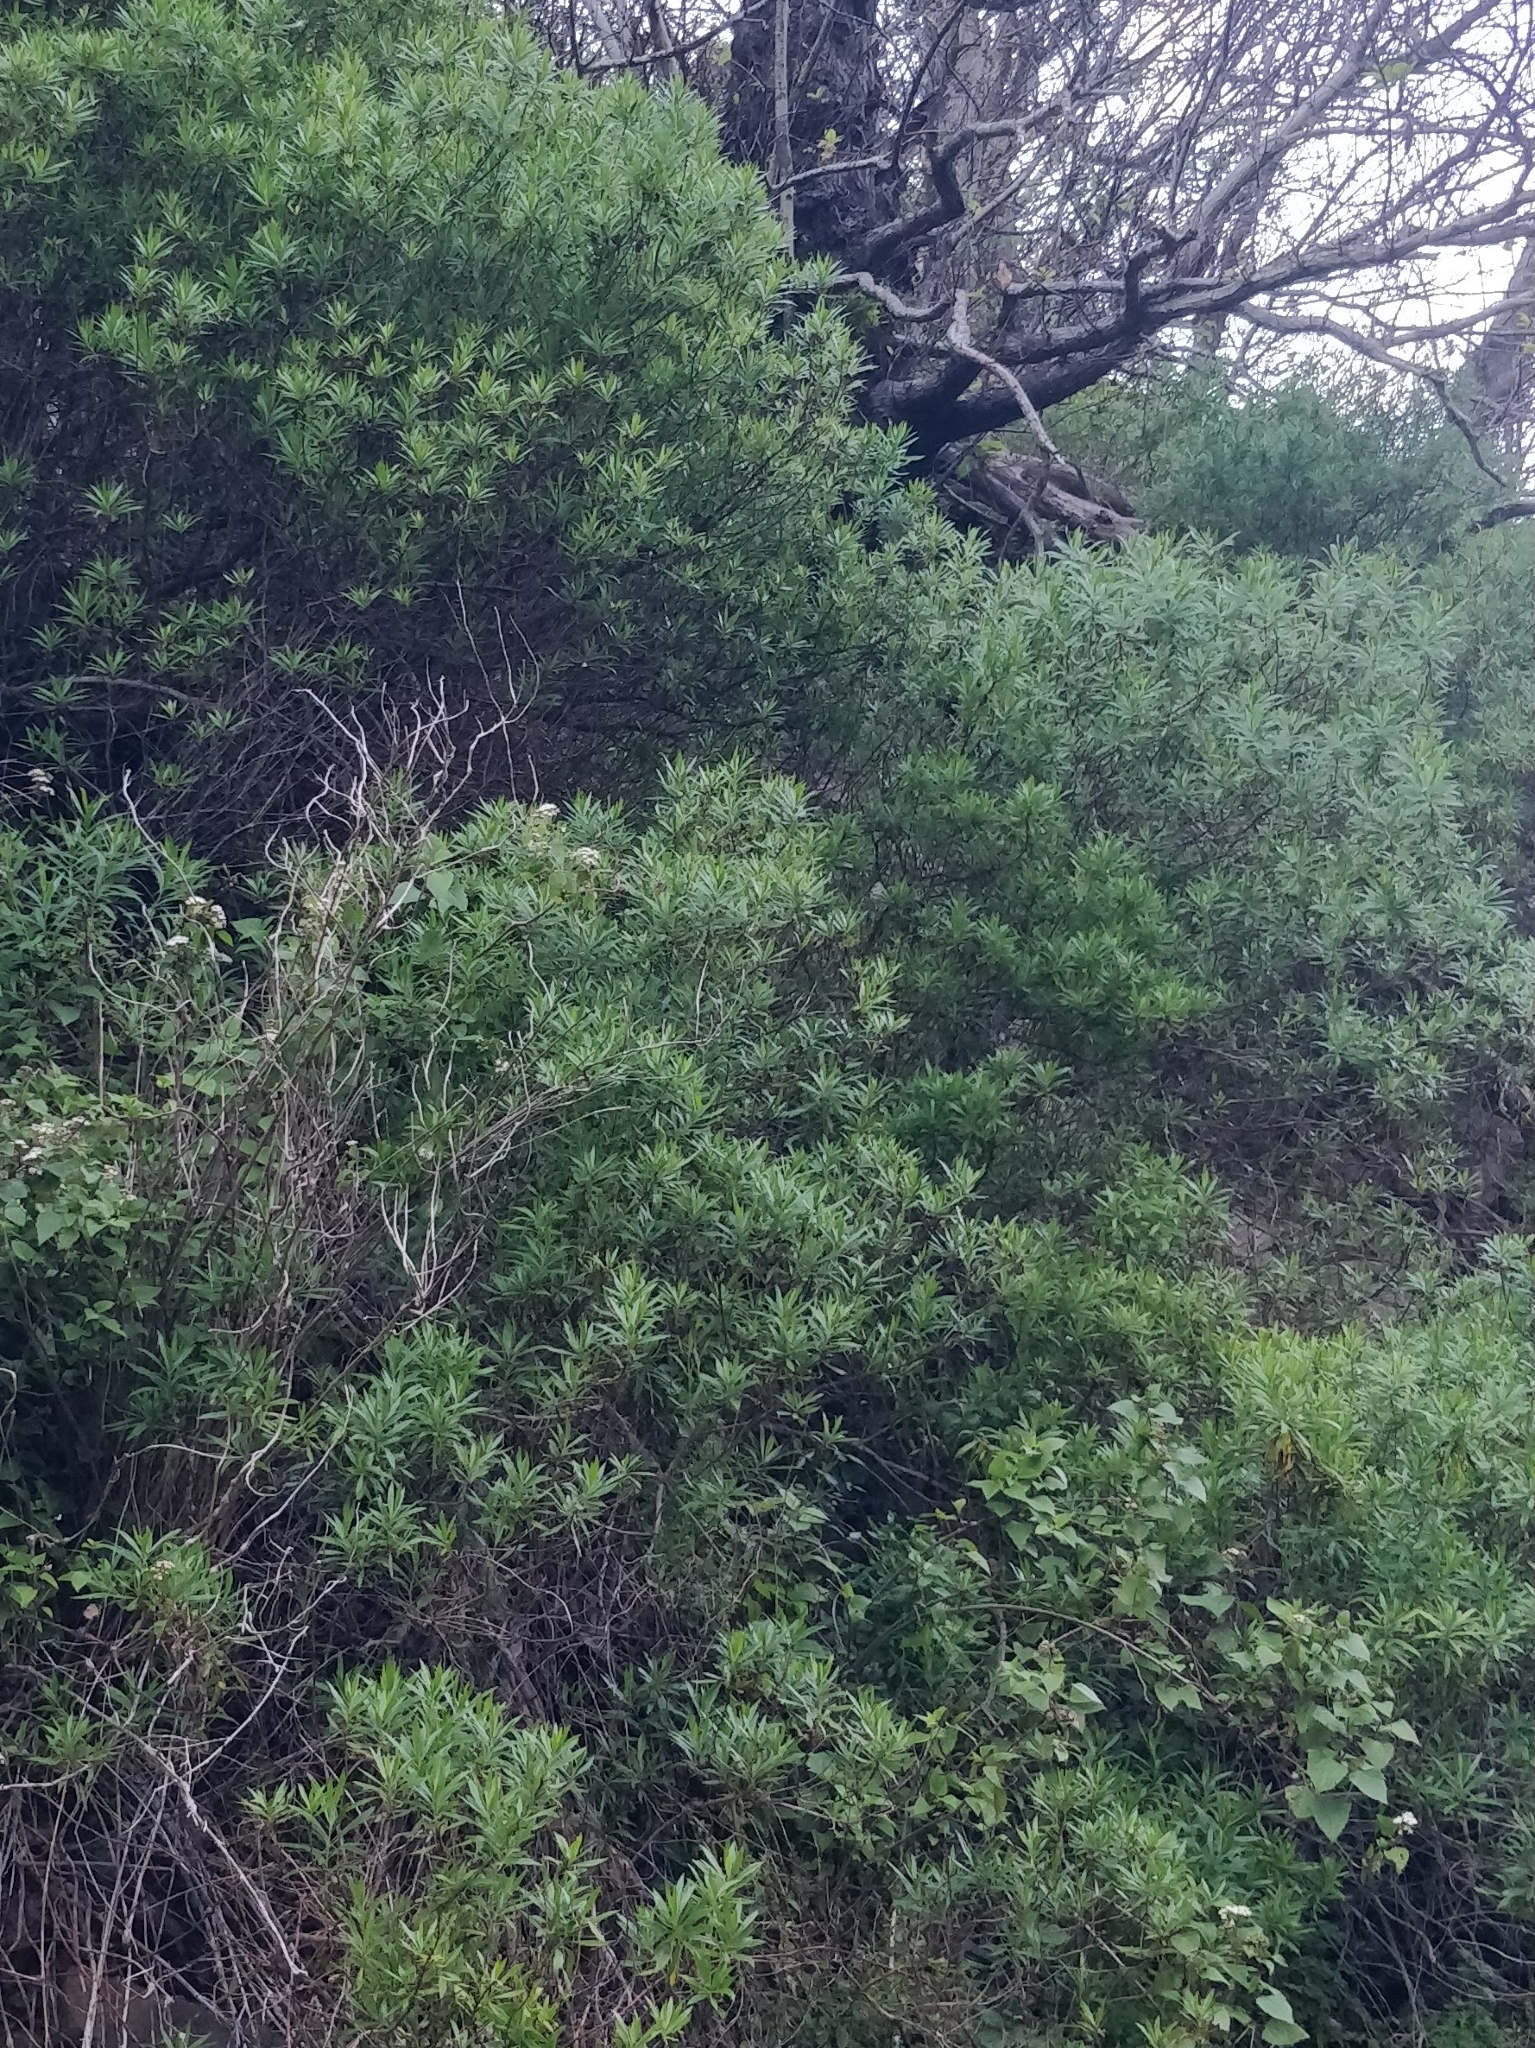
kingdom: Plantae
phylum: Tracheophyta
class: Magnoliopsida
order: Lamiales
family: Plantaginaceae
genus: Globularia
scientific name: Globularia salicina
